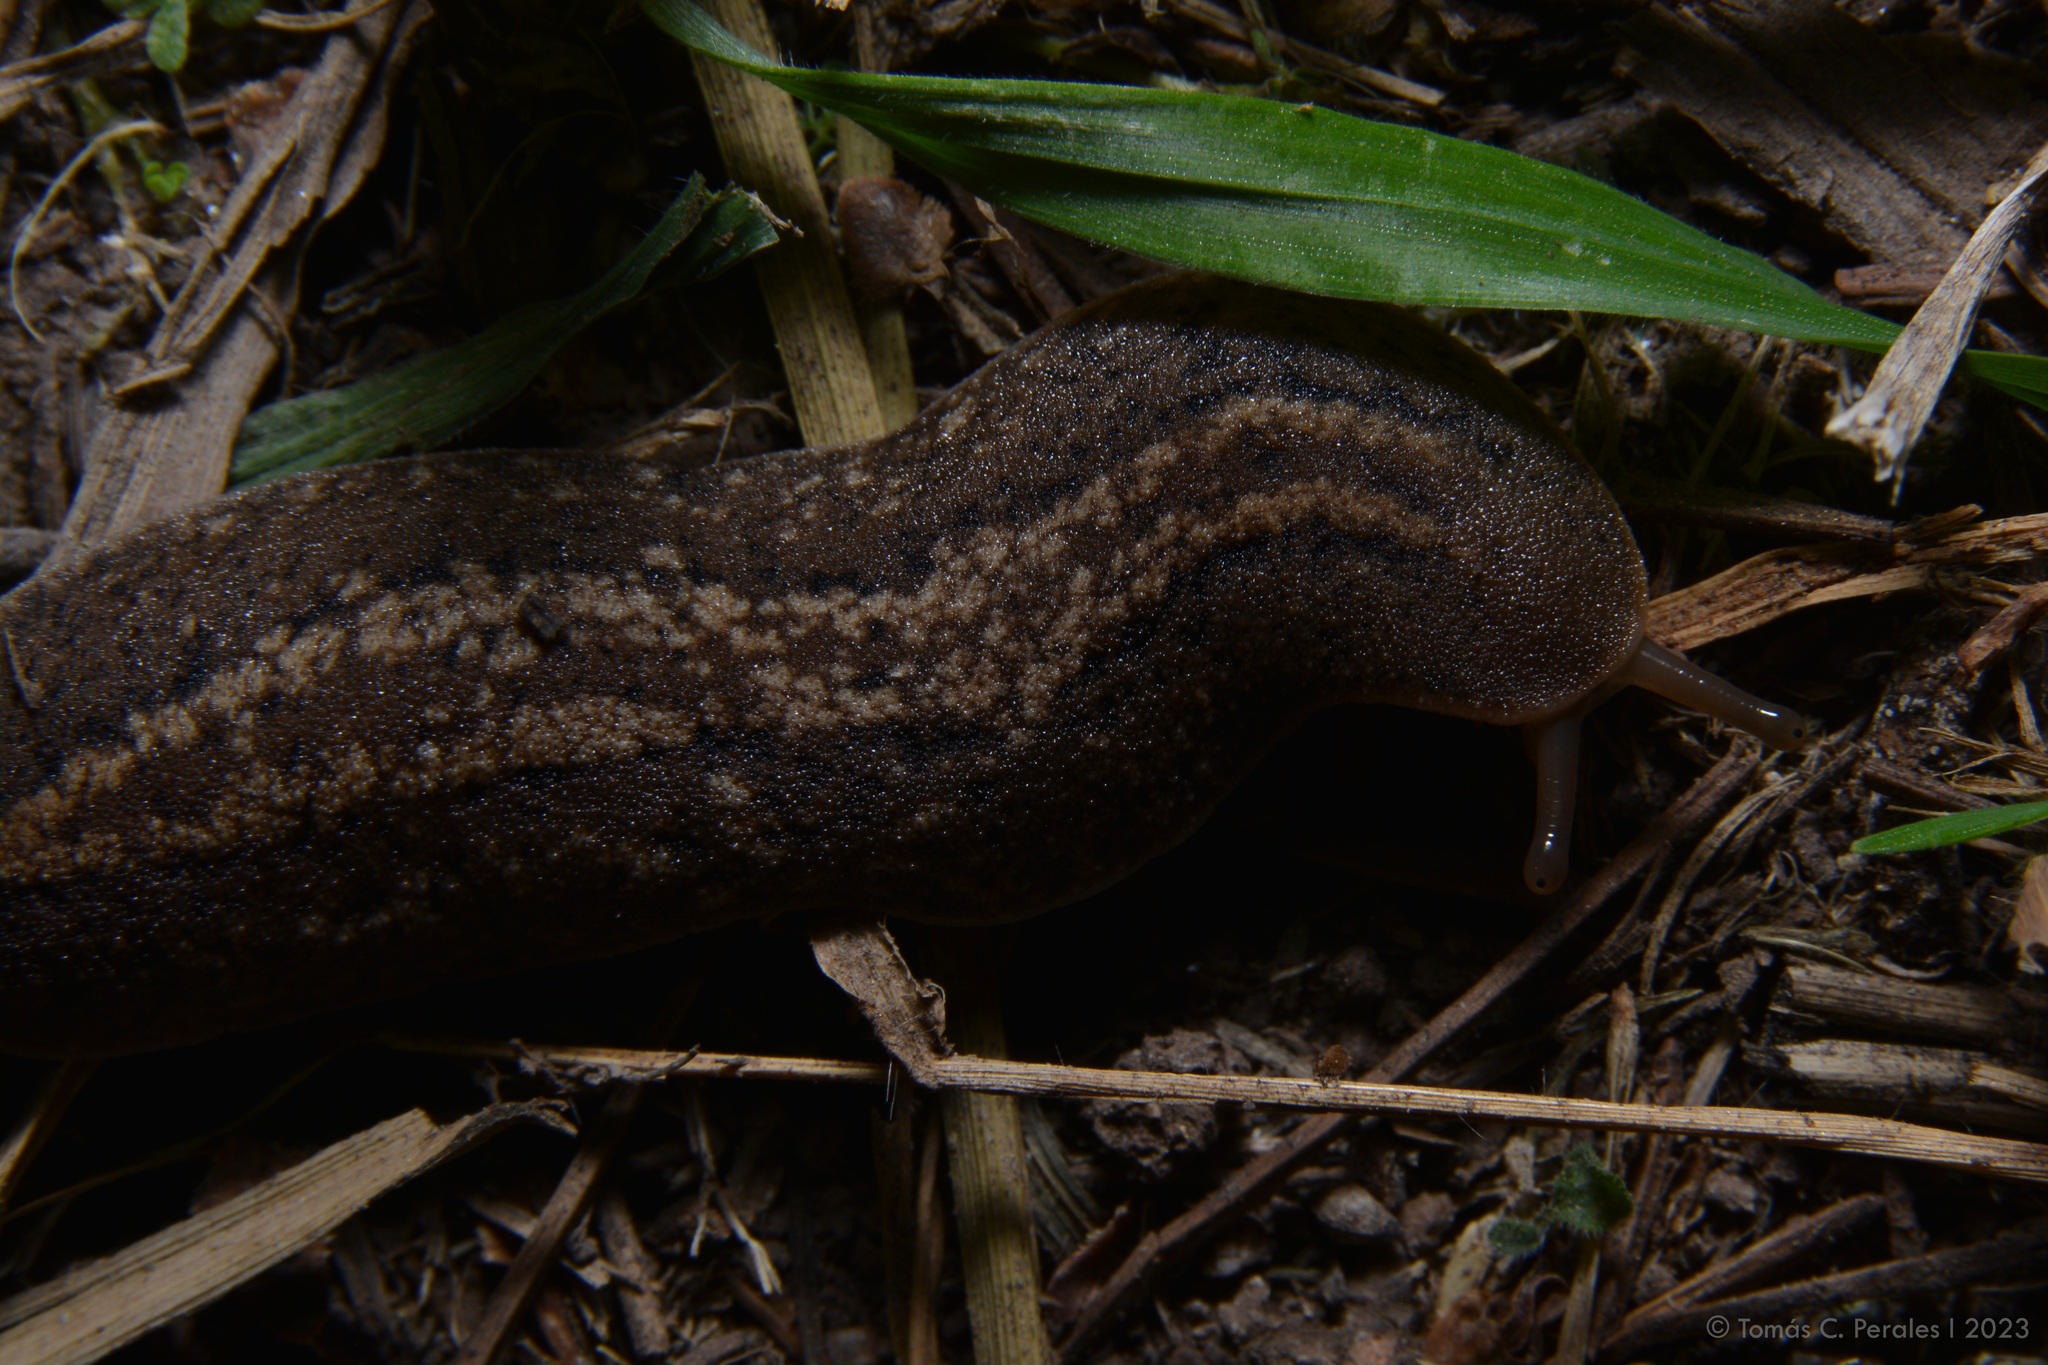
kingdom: Animalia
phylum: Mollusca
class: Gastropoda
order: Systellommatophora
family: Veronicellidae
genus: Phyllocaulis
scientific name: Phyllocaulis soleiformis
